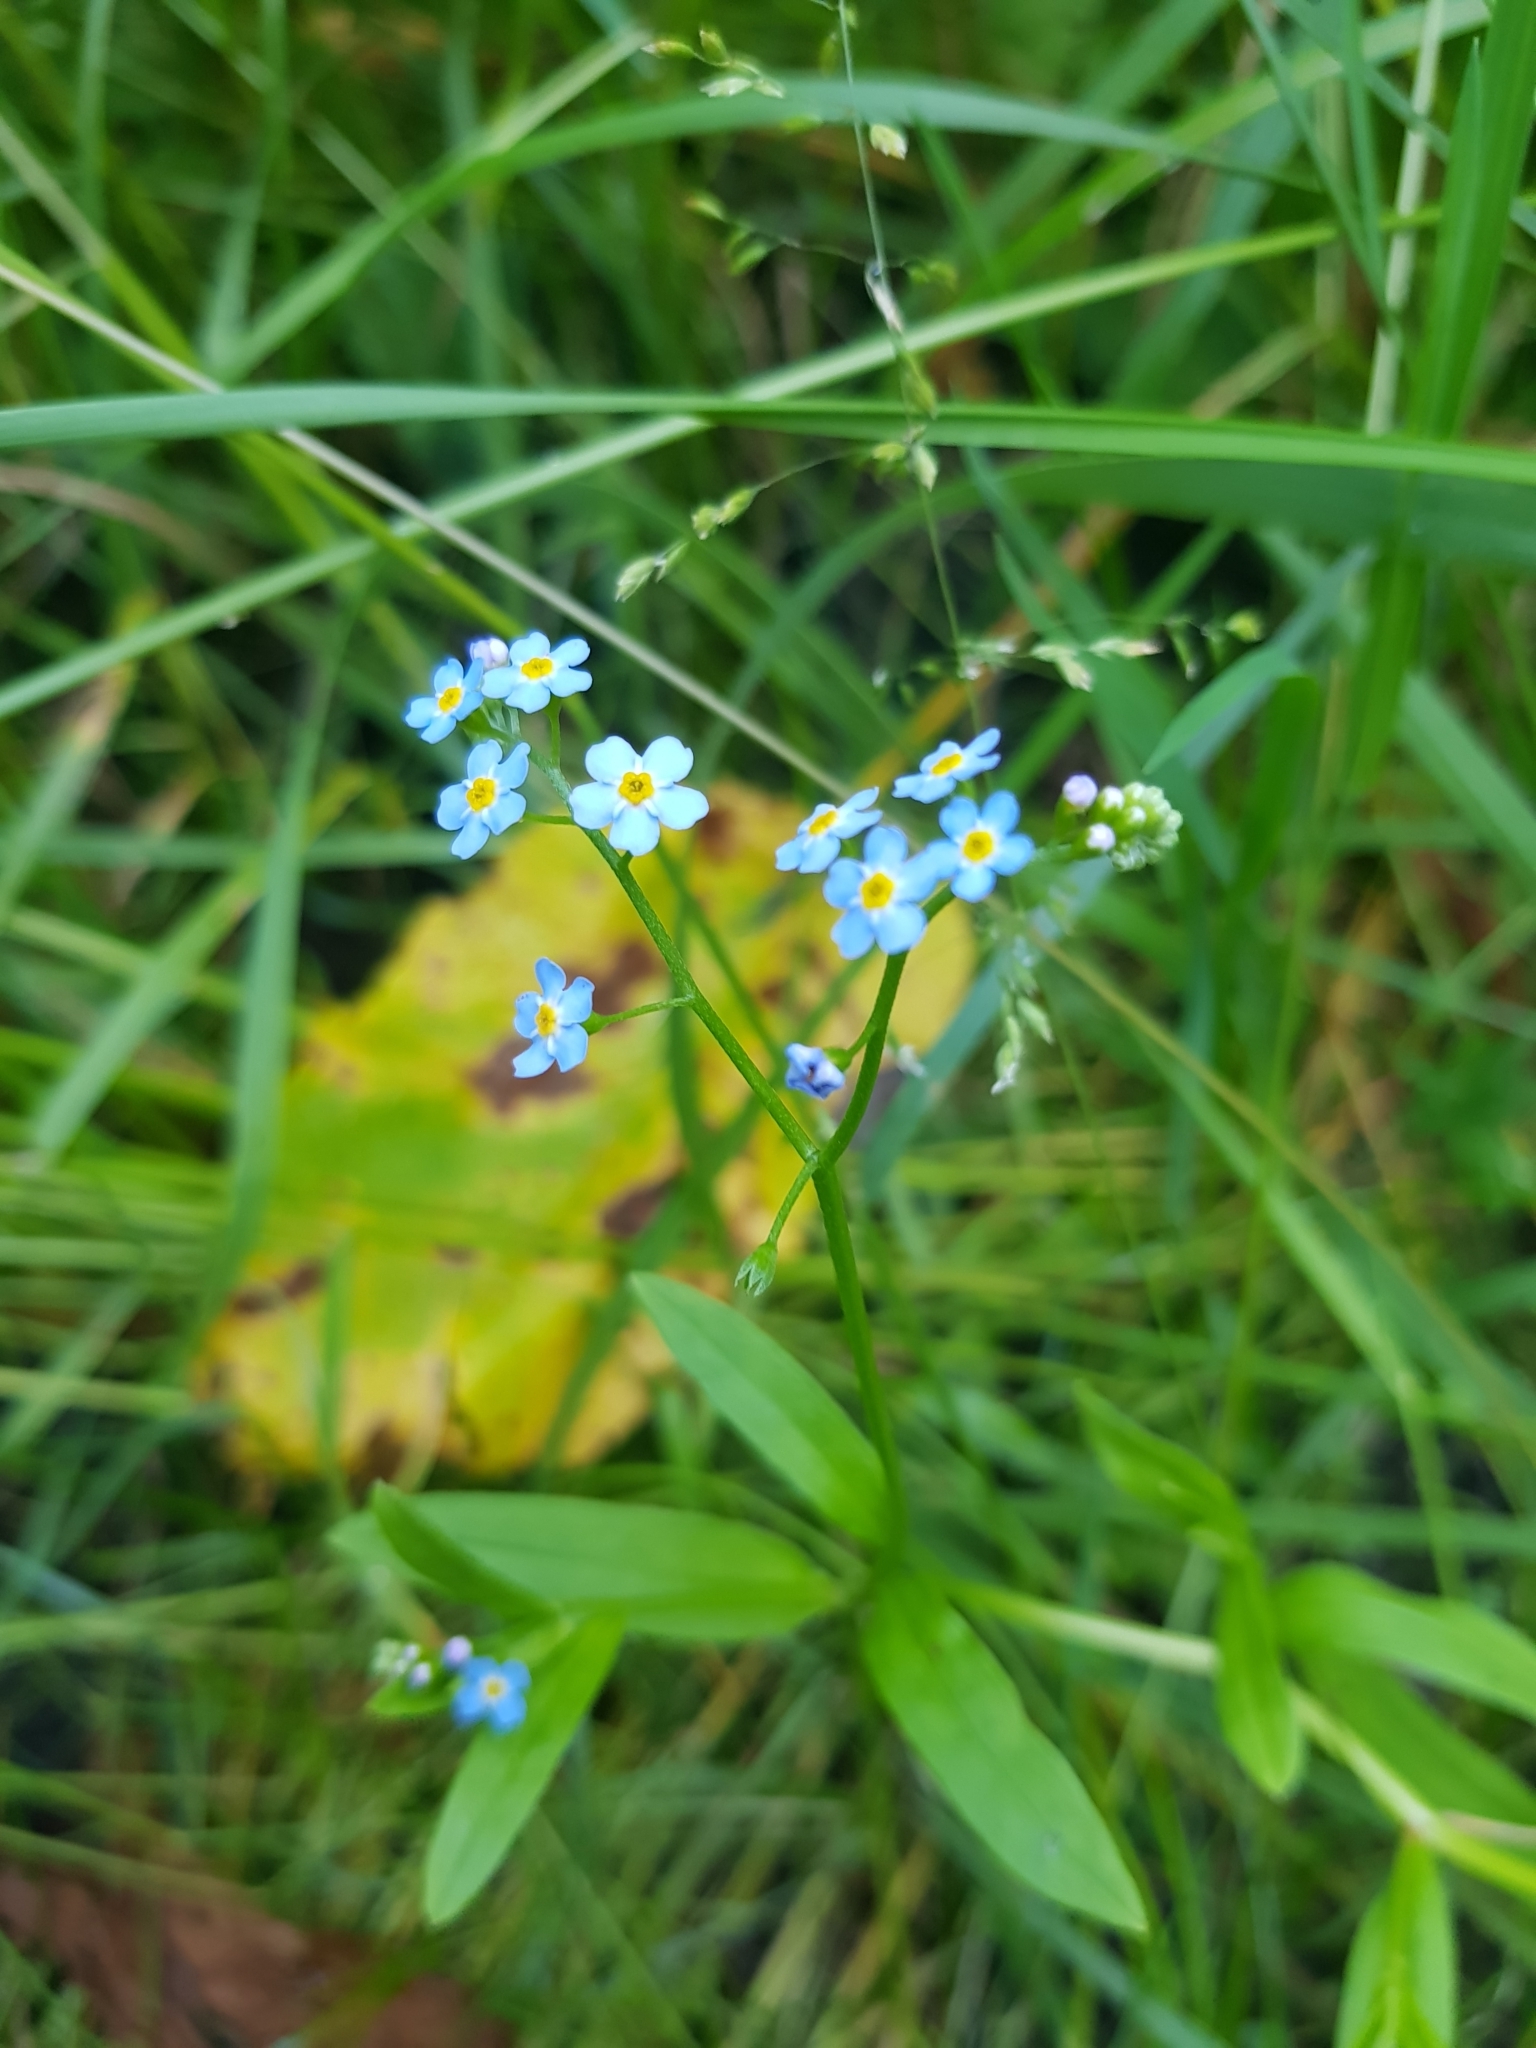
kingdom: Plantae
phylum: Tracheophyta
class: Magnoliopsida
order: Boraginales
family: Boraginaceae
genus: Myosotis
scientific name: Myosotis scorpioides
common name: Water forget-me-not
